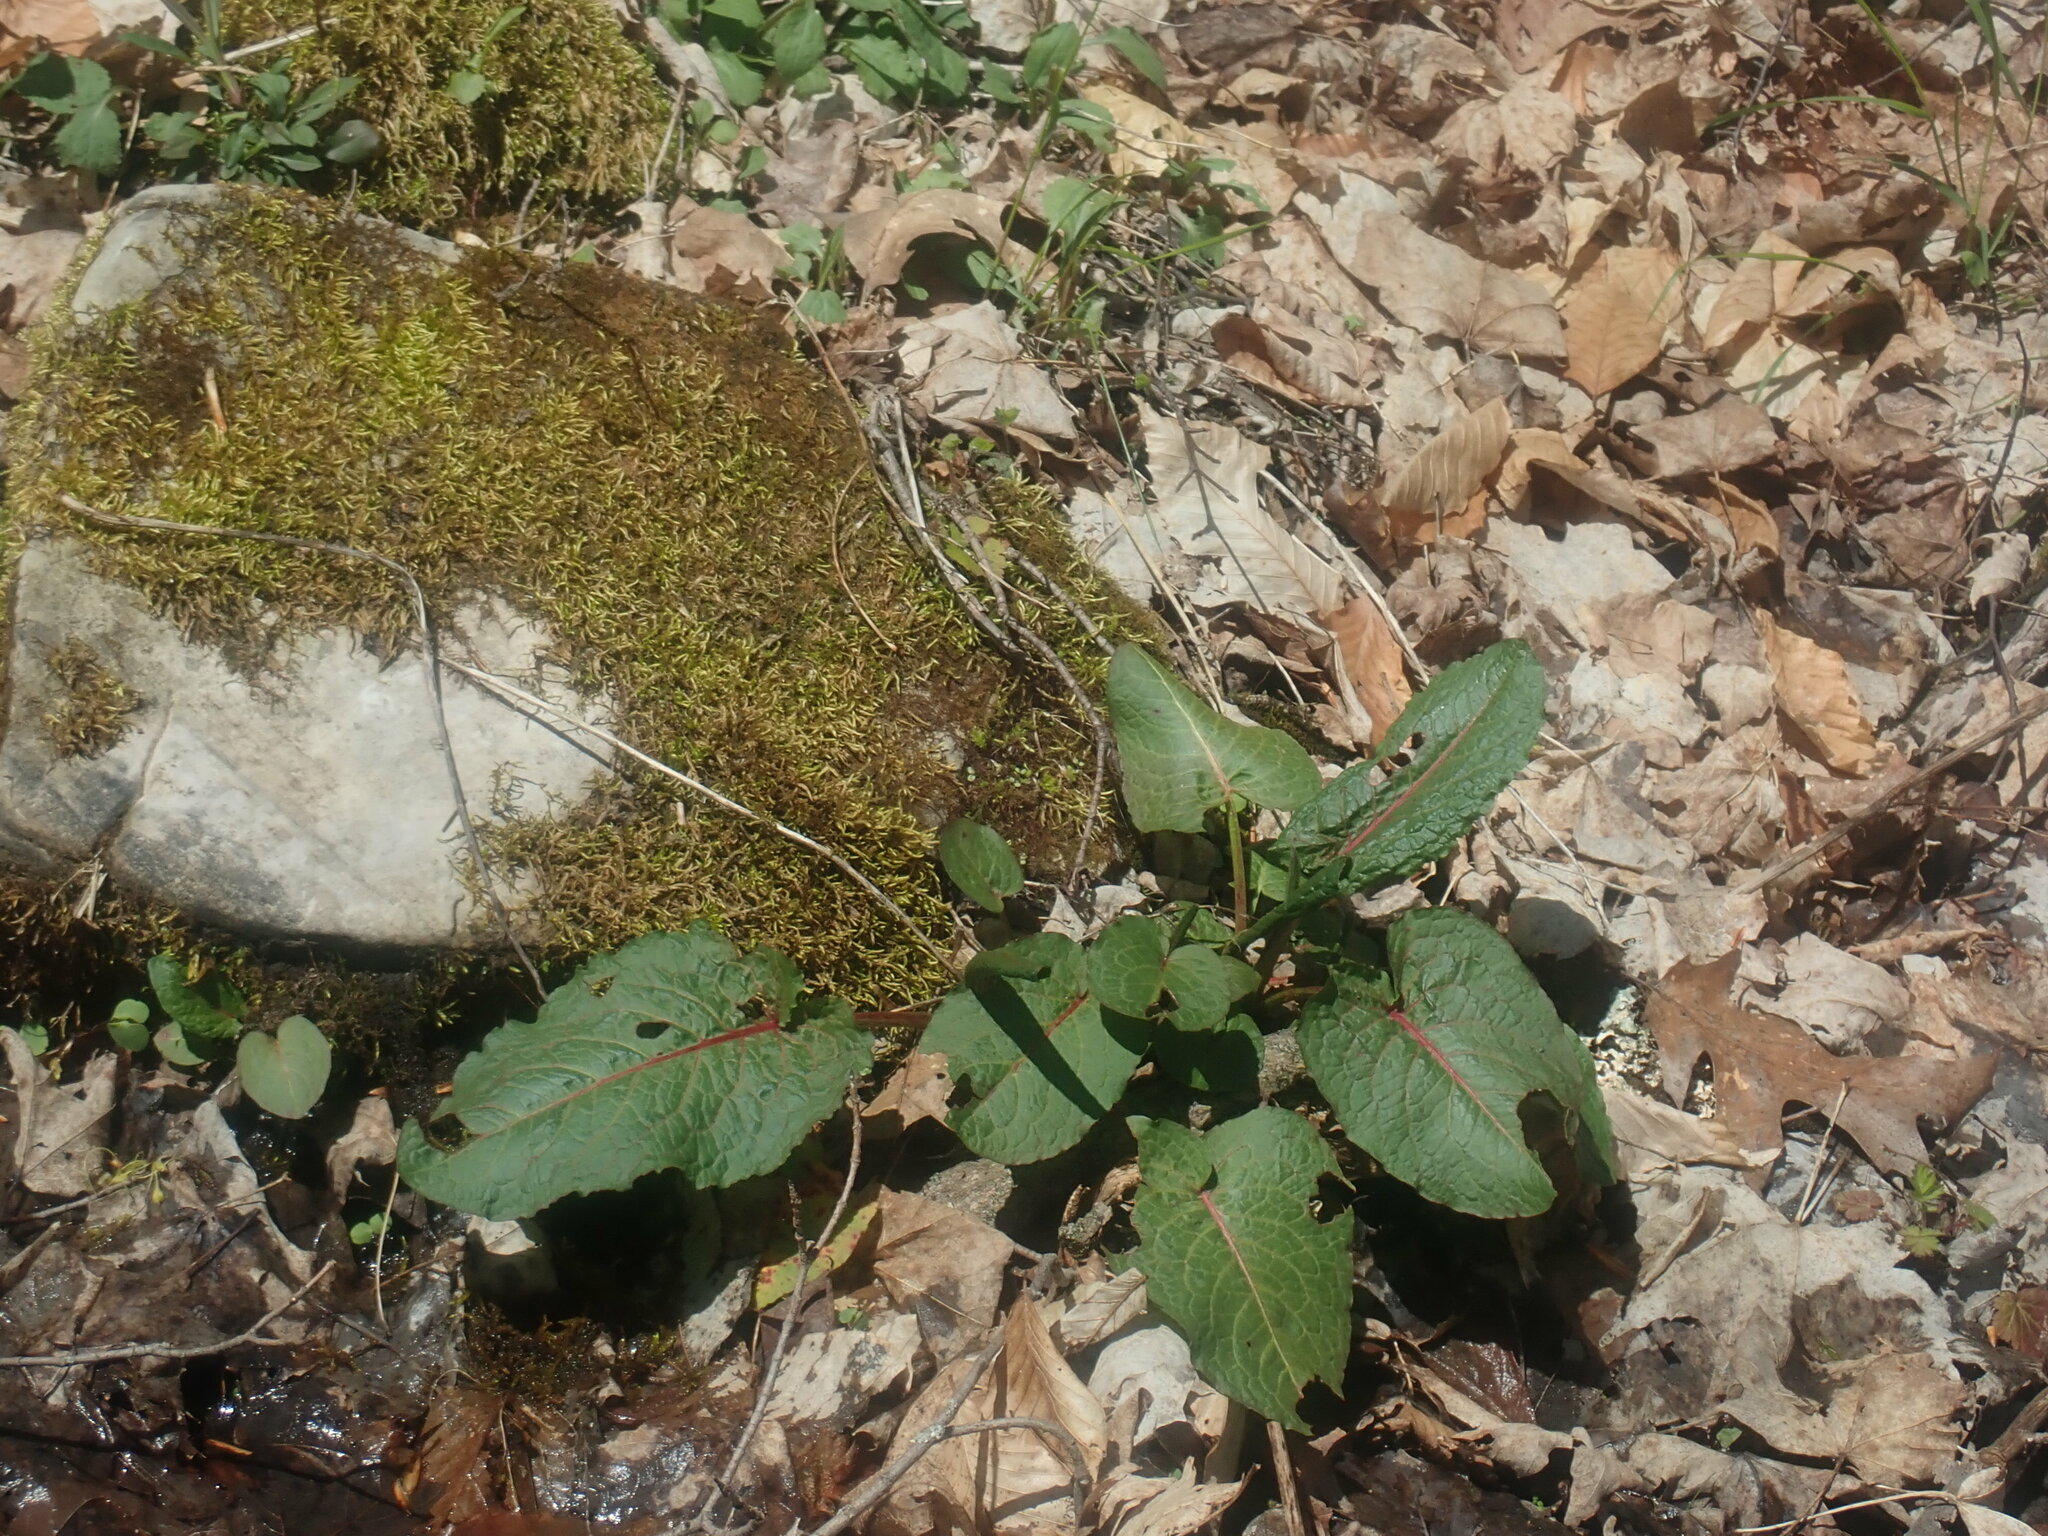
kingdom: Plantae
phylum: Tracheophyta
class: Magnoliopsida
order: Caryophyllales
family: Polygonaceae
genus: Rumex
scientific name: Rumex obtusifolius
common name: Bitter dock
